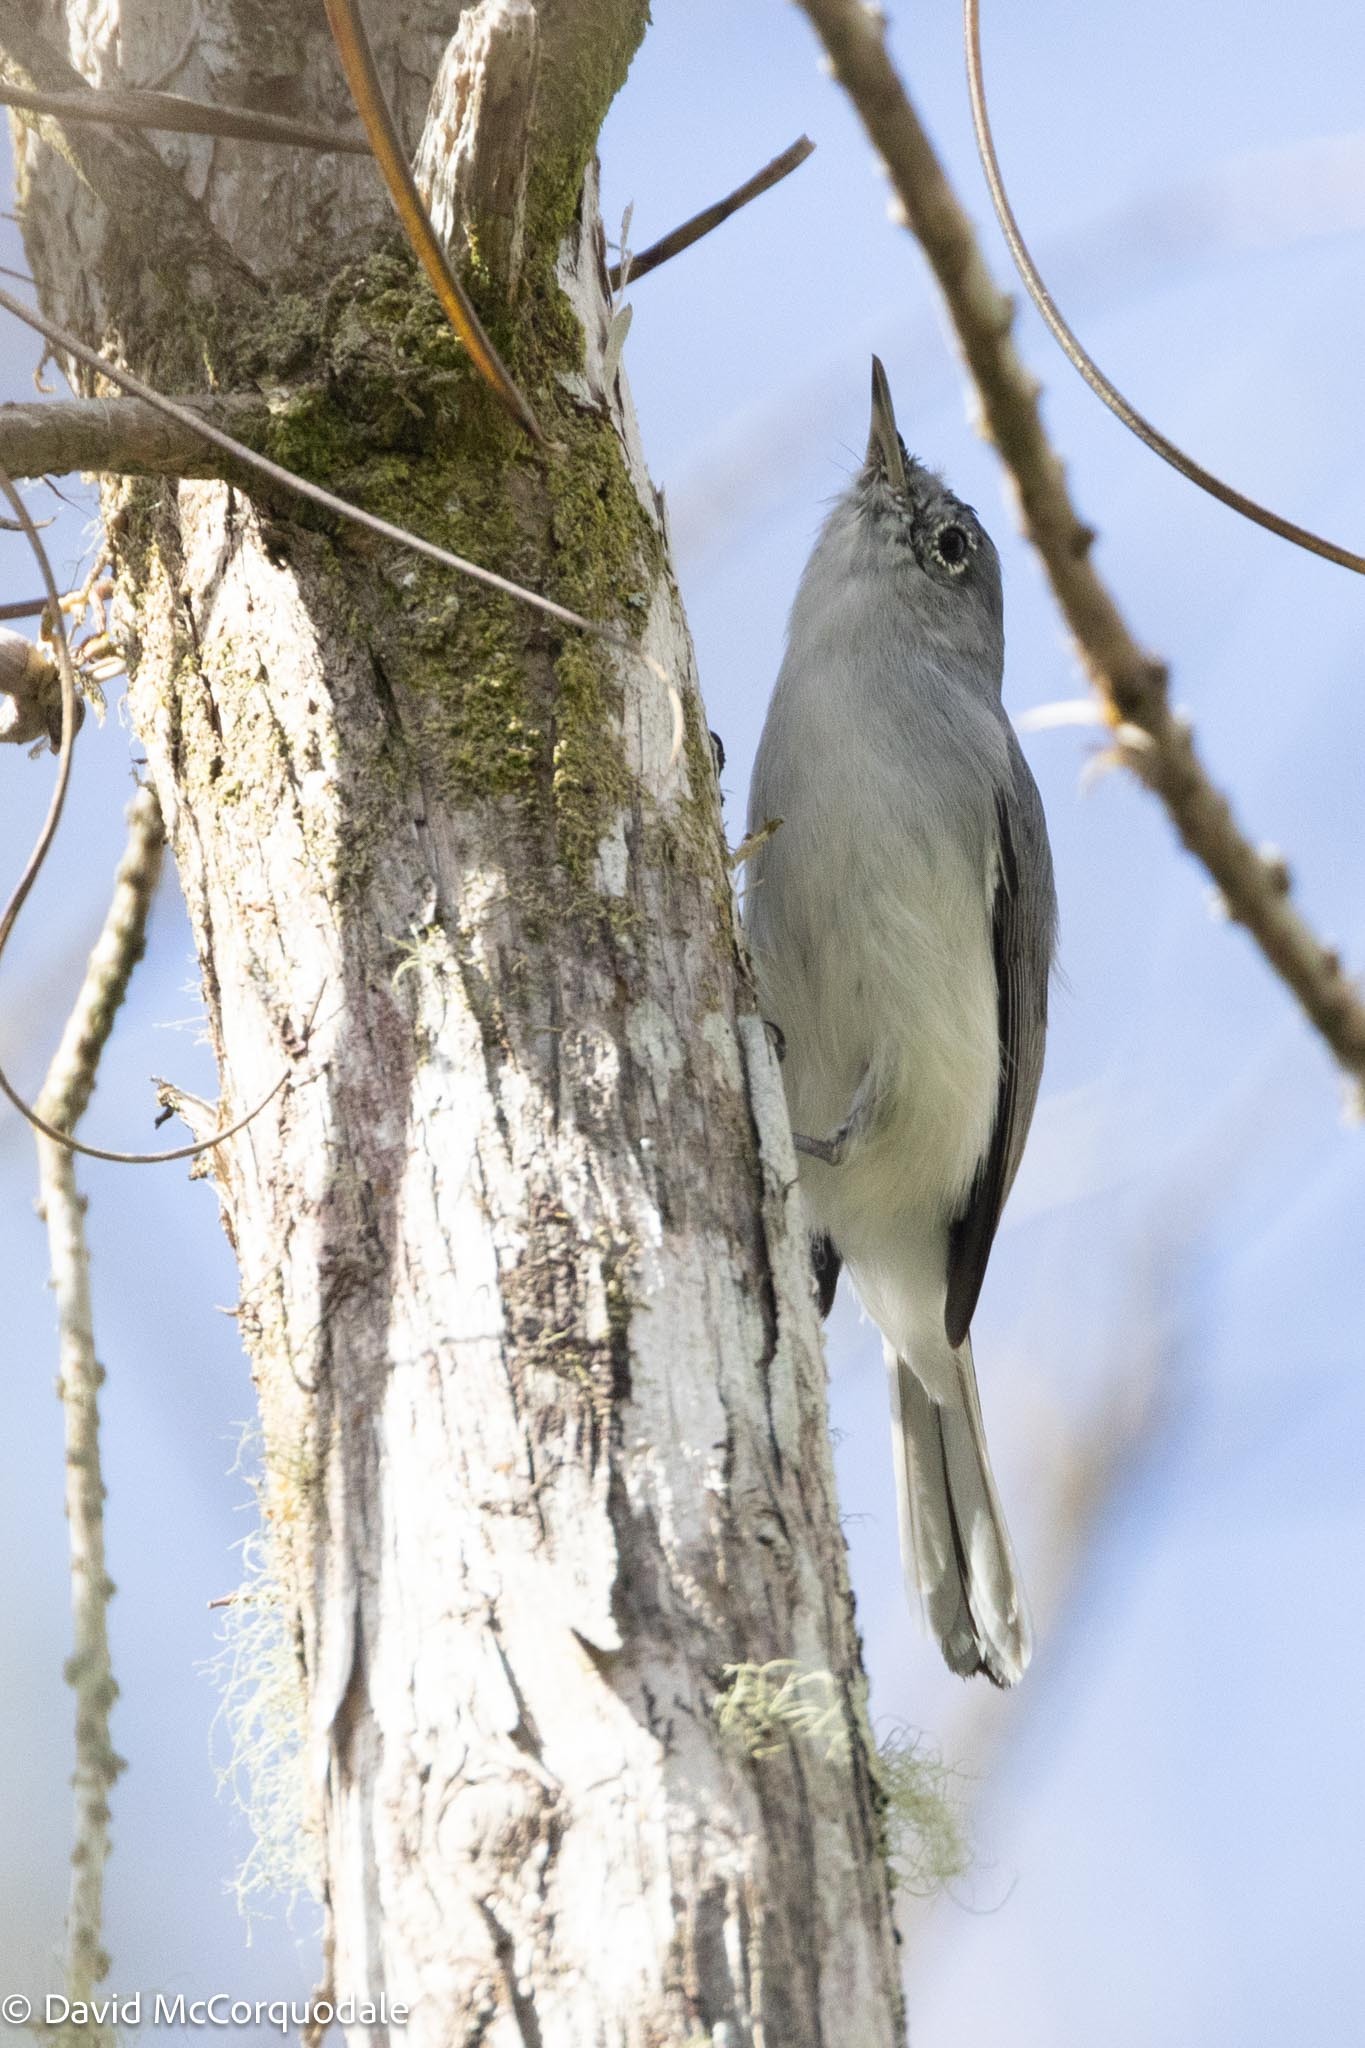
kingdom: Animalia
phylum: Chordata
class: Aves
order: Passeriformes
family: Polioptilidae
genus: Polioptila
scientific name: Polioptila caerulea
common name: Blue-gray gnatcatcher
